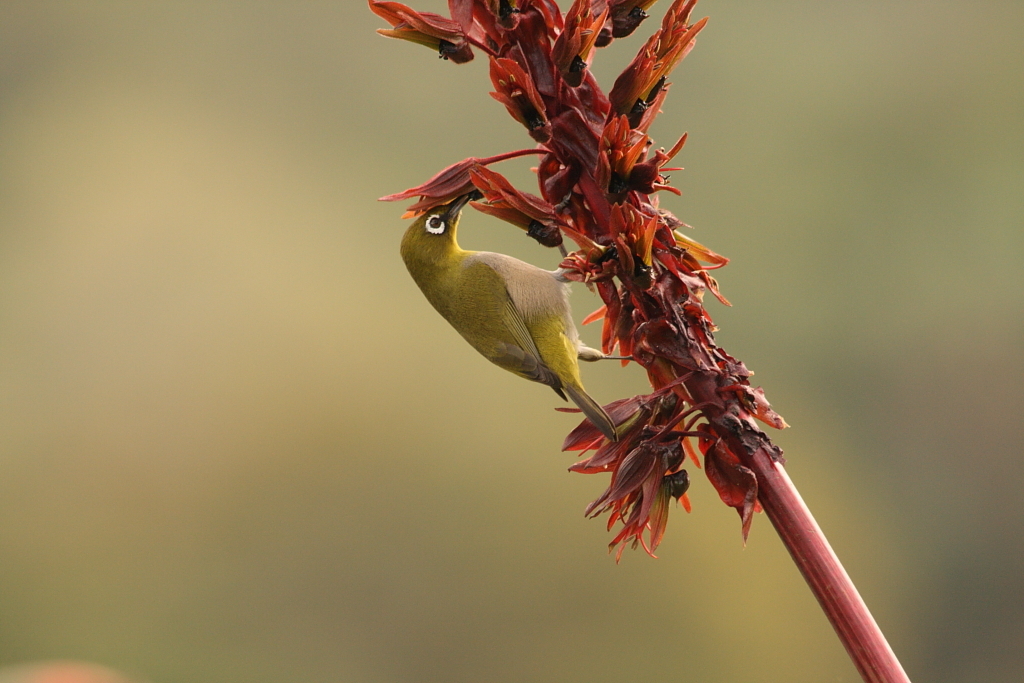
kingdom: Animalia
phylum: Chordata
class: Aves
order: Passeriformes
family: Zosteropidae
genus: Zosterops
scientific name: Zosterops virens
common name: Cape white-eye
